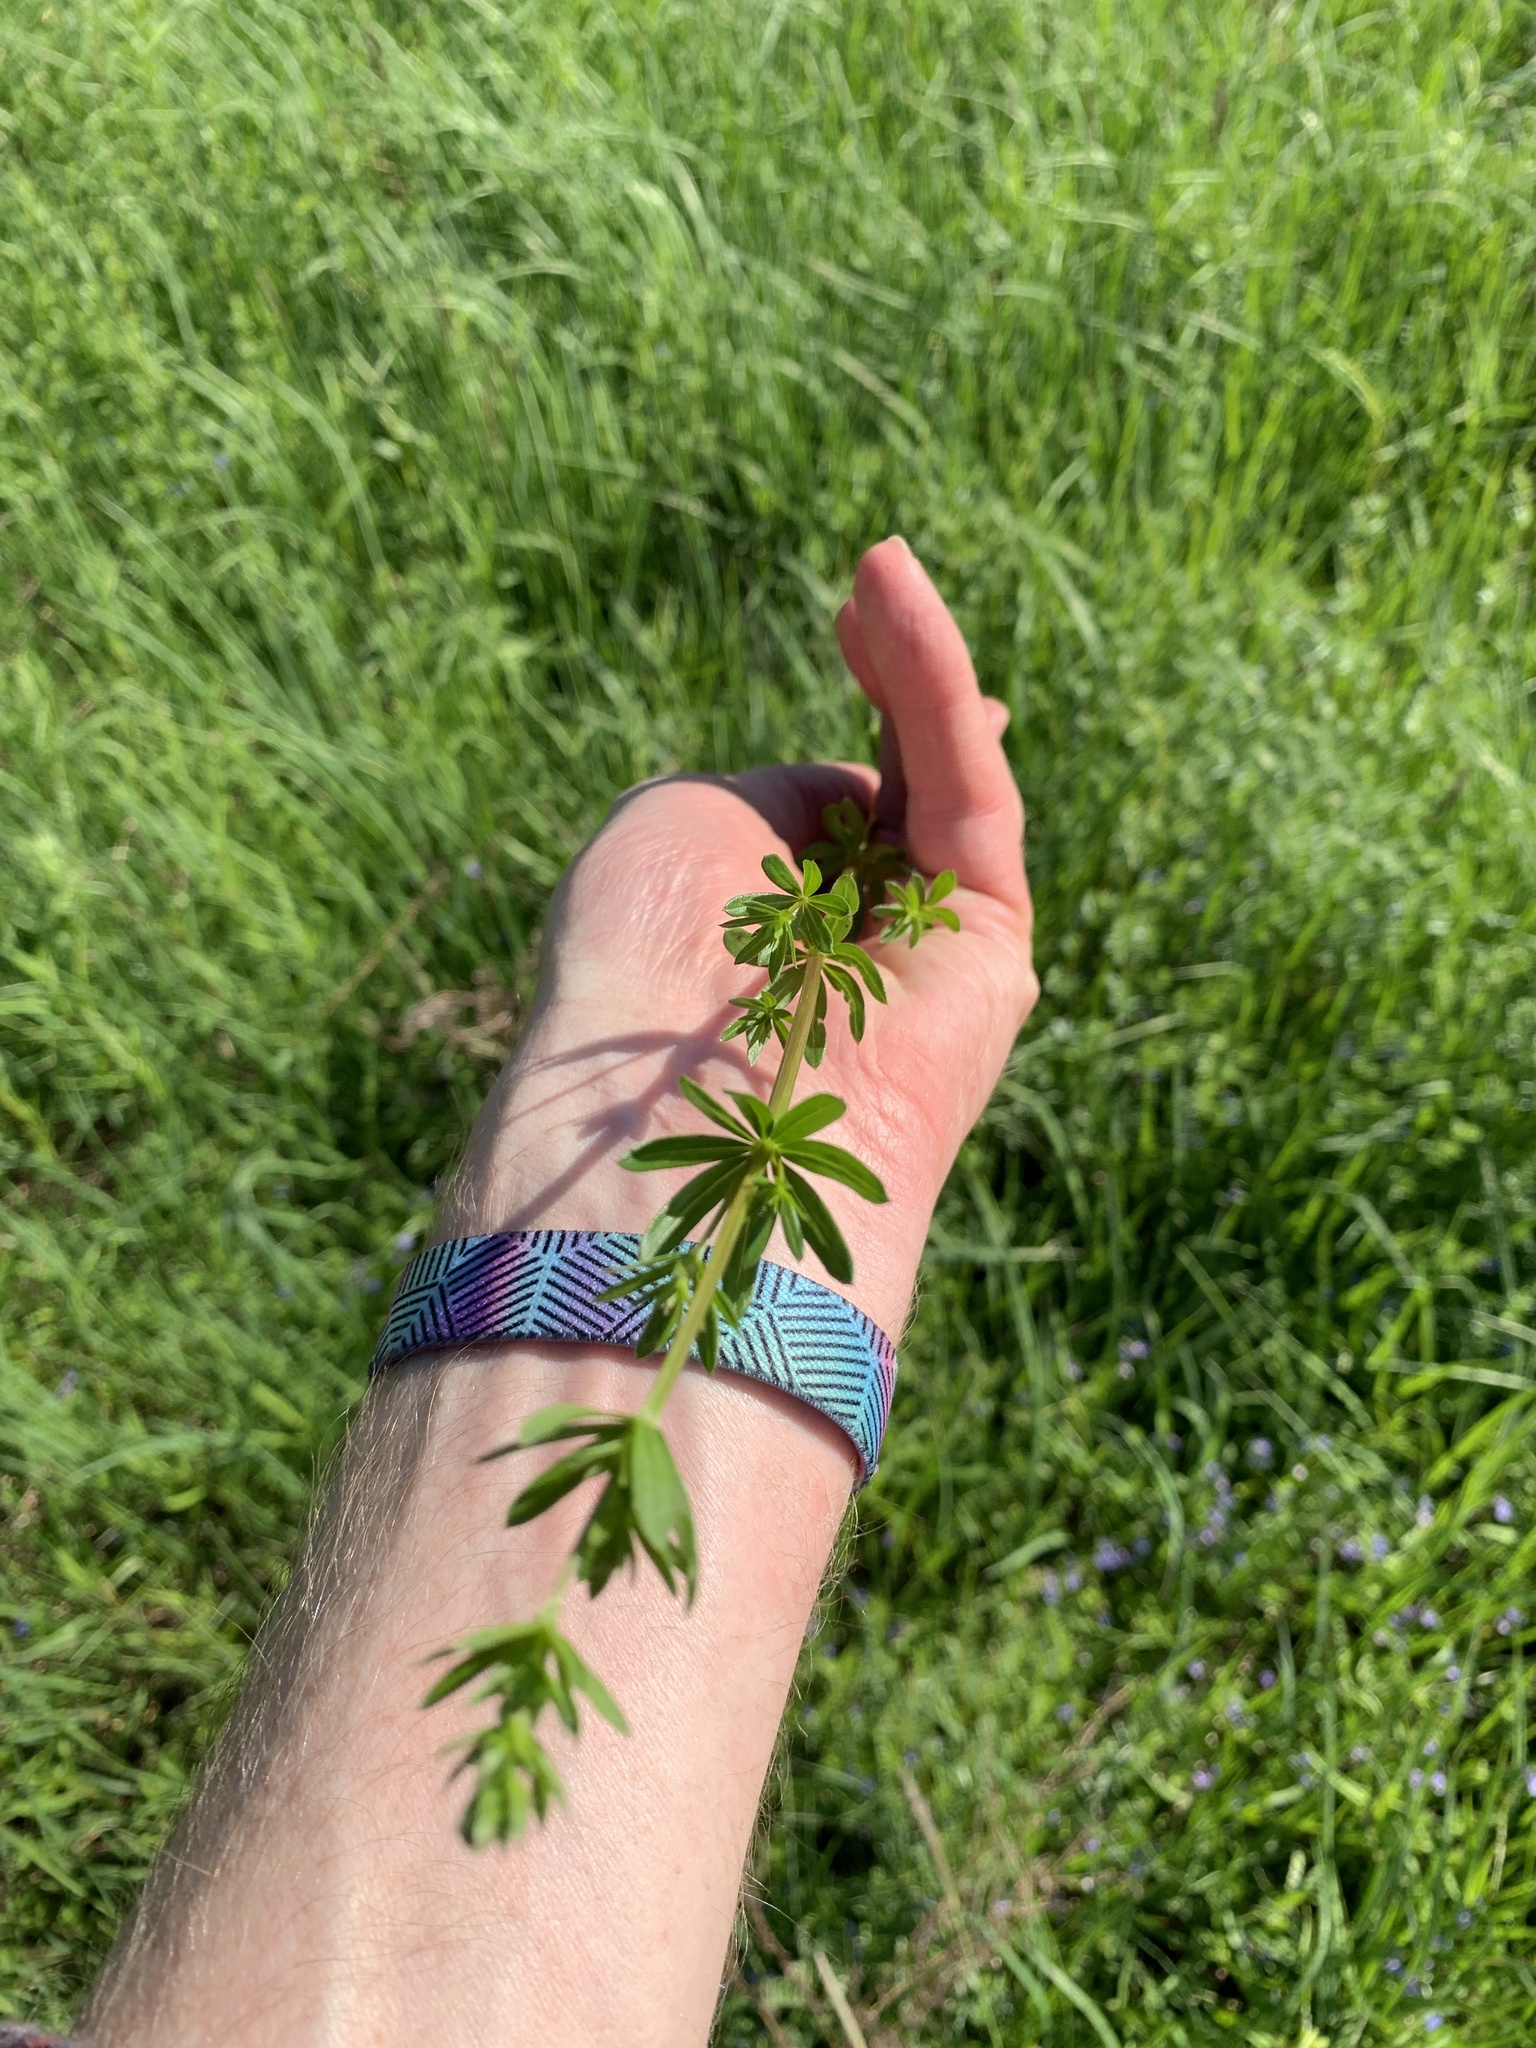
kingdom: Plantae
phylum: Tracheophyta
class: Magnoliopsida
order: Gentianales
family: Rubiaceae
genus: Galium
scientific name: Galium mollugo
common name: Hedge bedstraw
